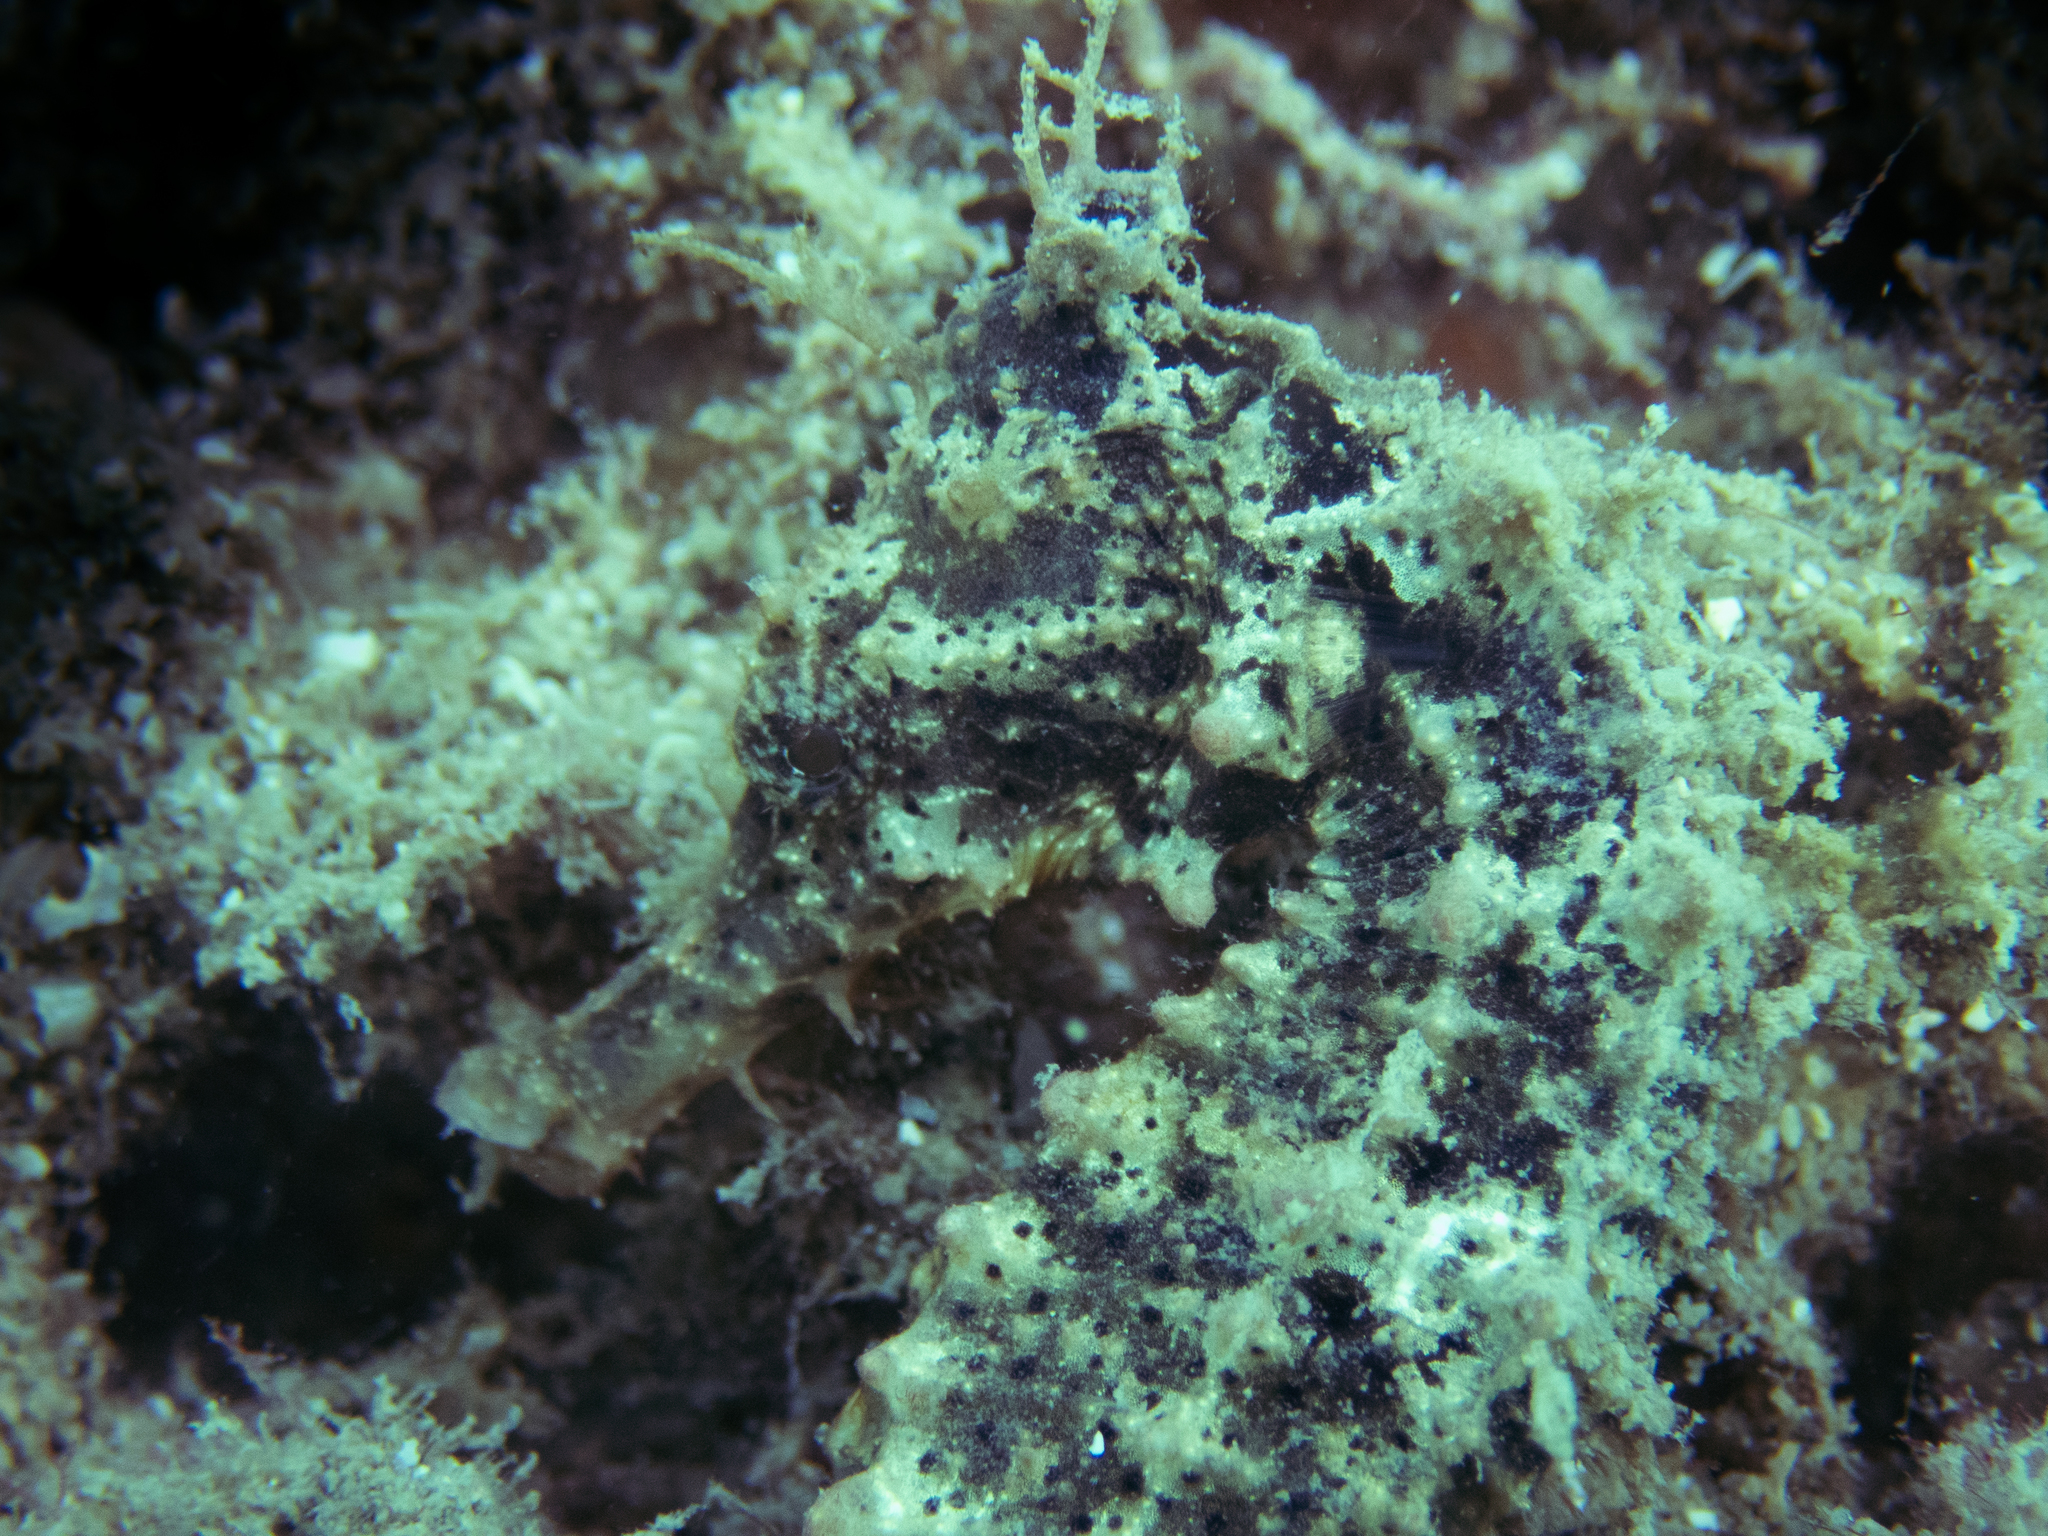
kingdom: Animalia
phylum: Chordata
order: Syngnathiformes
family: Syngnathidae
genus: Hippocampus
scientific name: Hippocampus kuda
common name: Spotted seahorse
